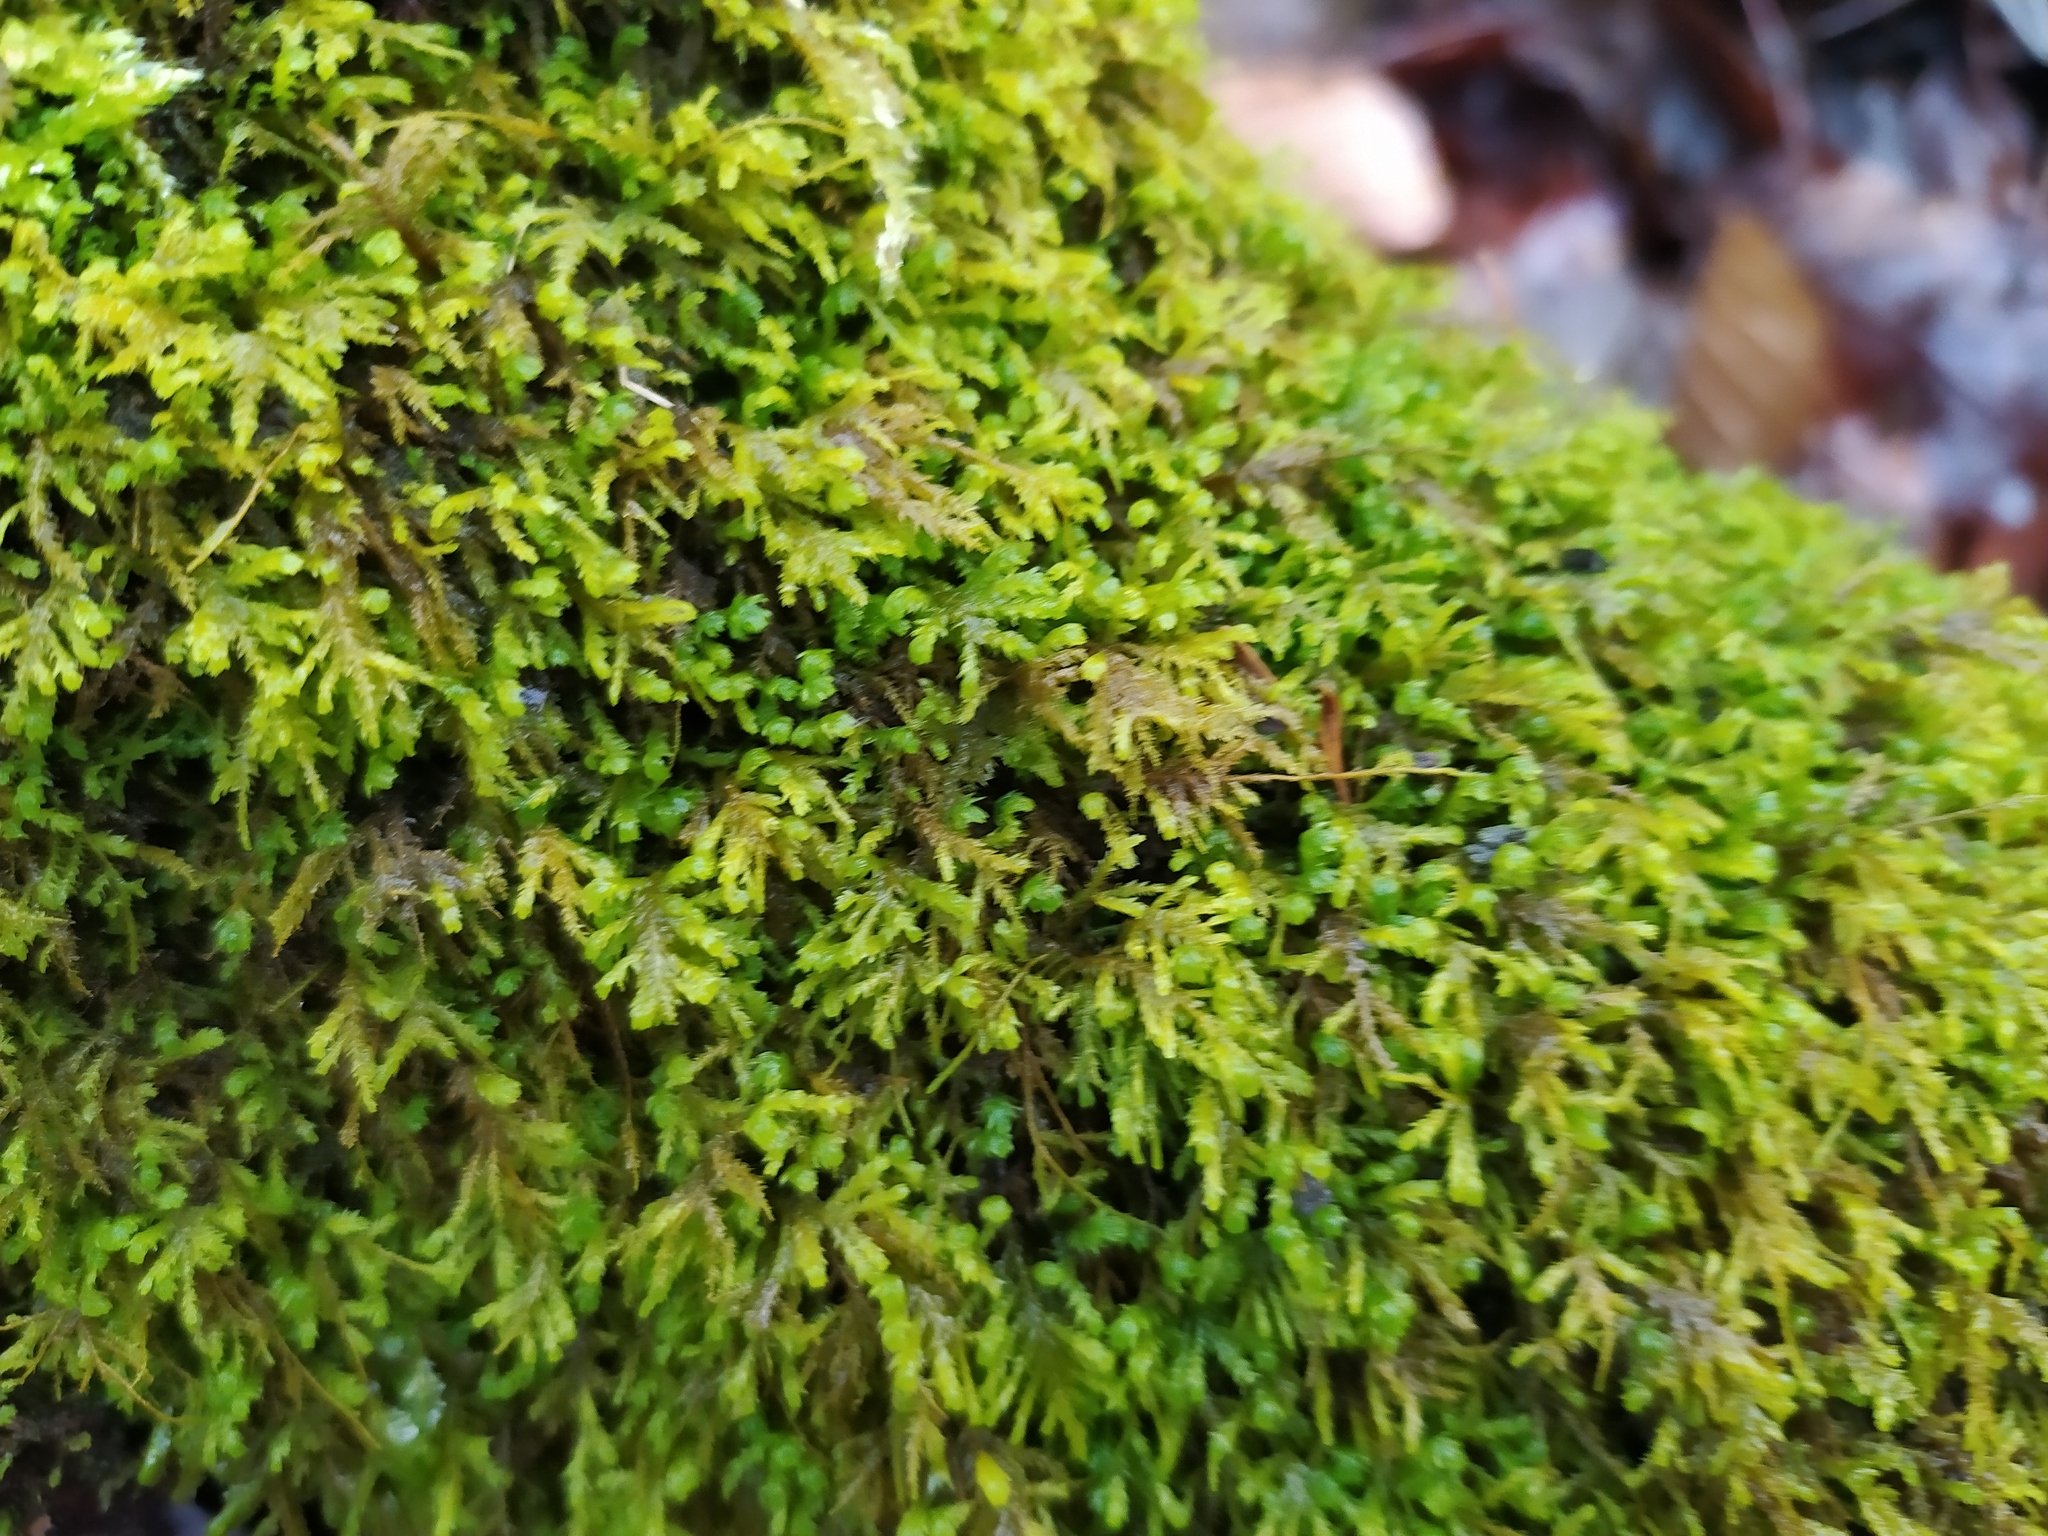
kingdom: Plantae
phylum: Bryophyta
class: Bryopsida
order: Hypnales
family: Neckeraceae
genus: Pseudanomodon
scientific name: Pseudanomodon attenuatus
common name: Tree-skirt moss
